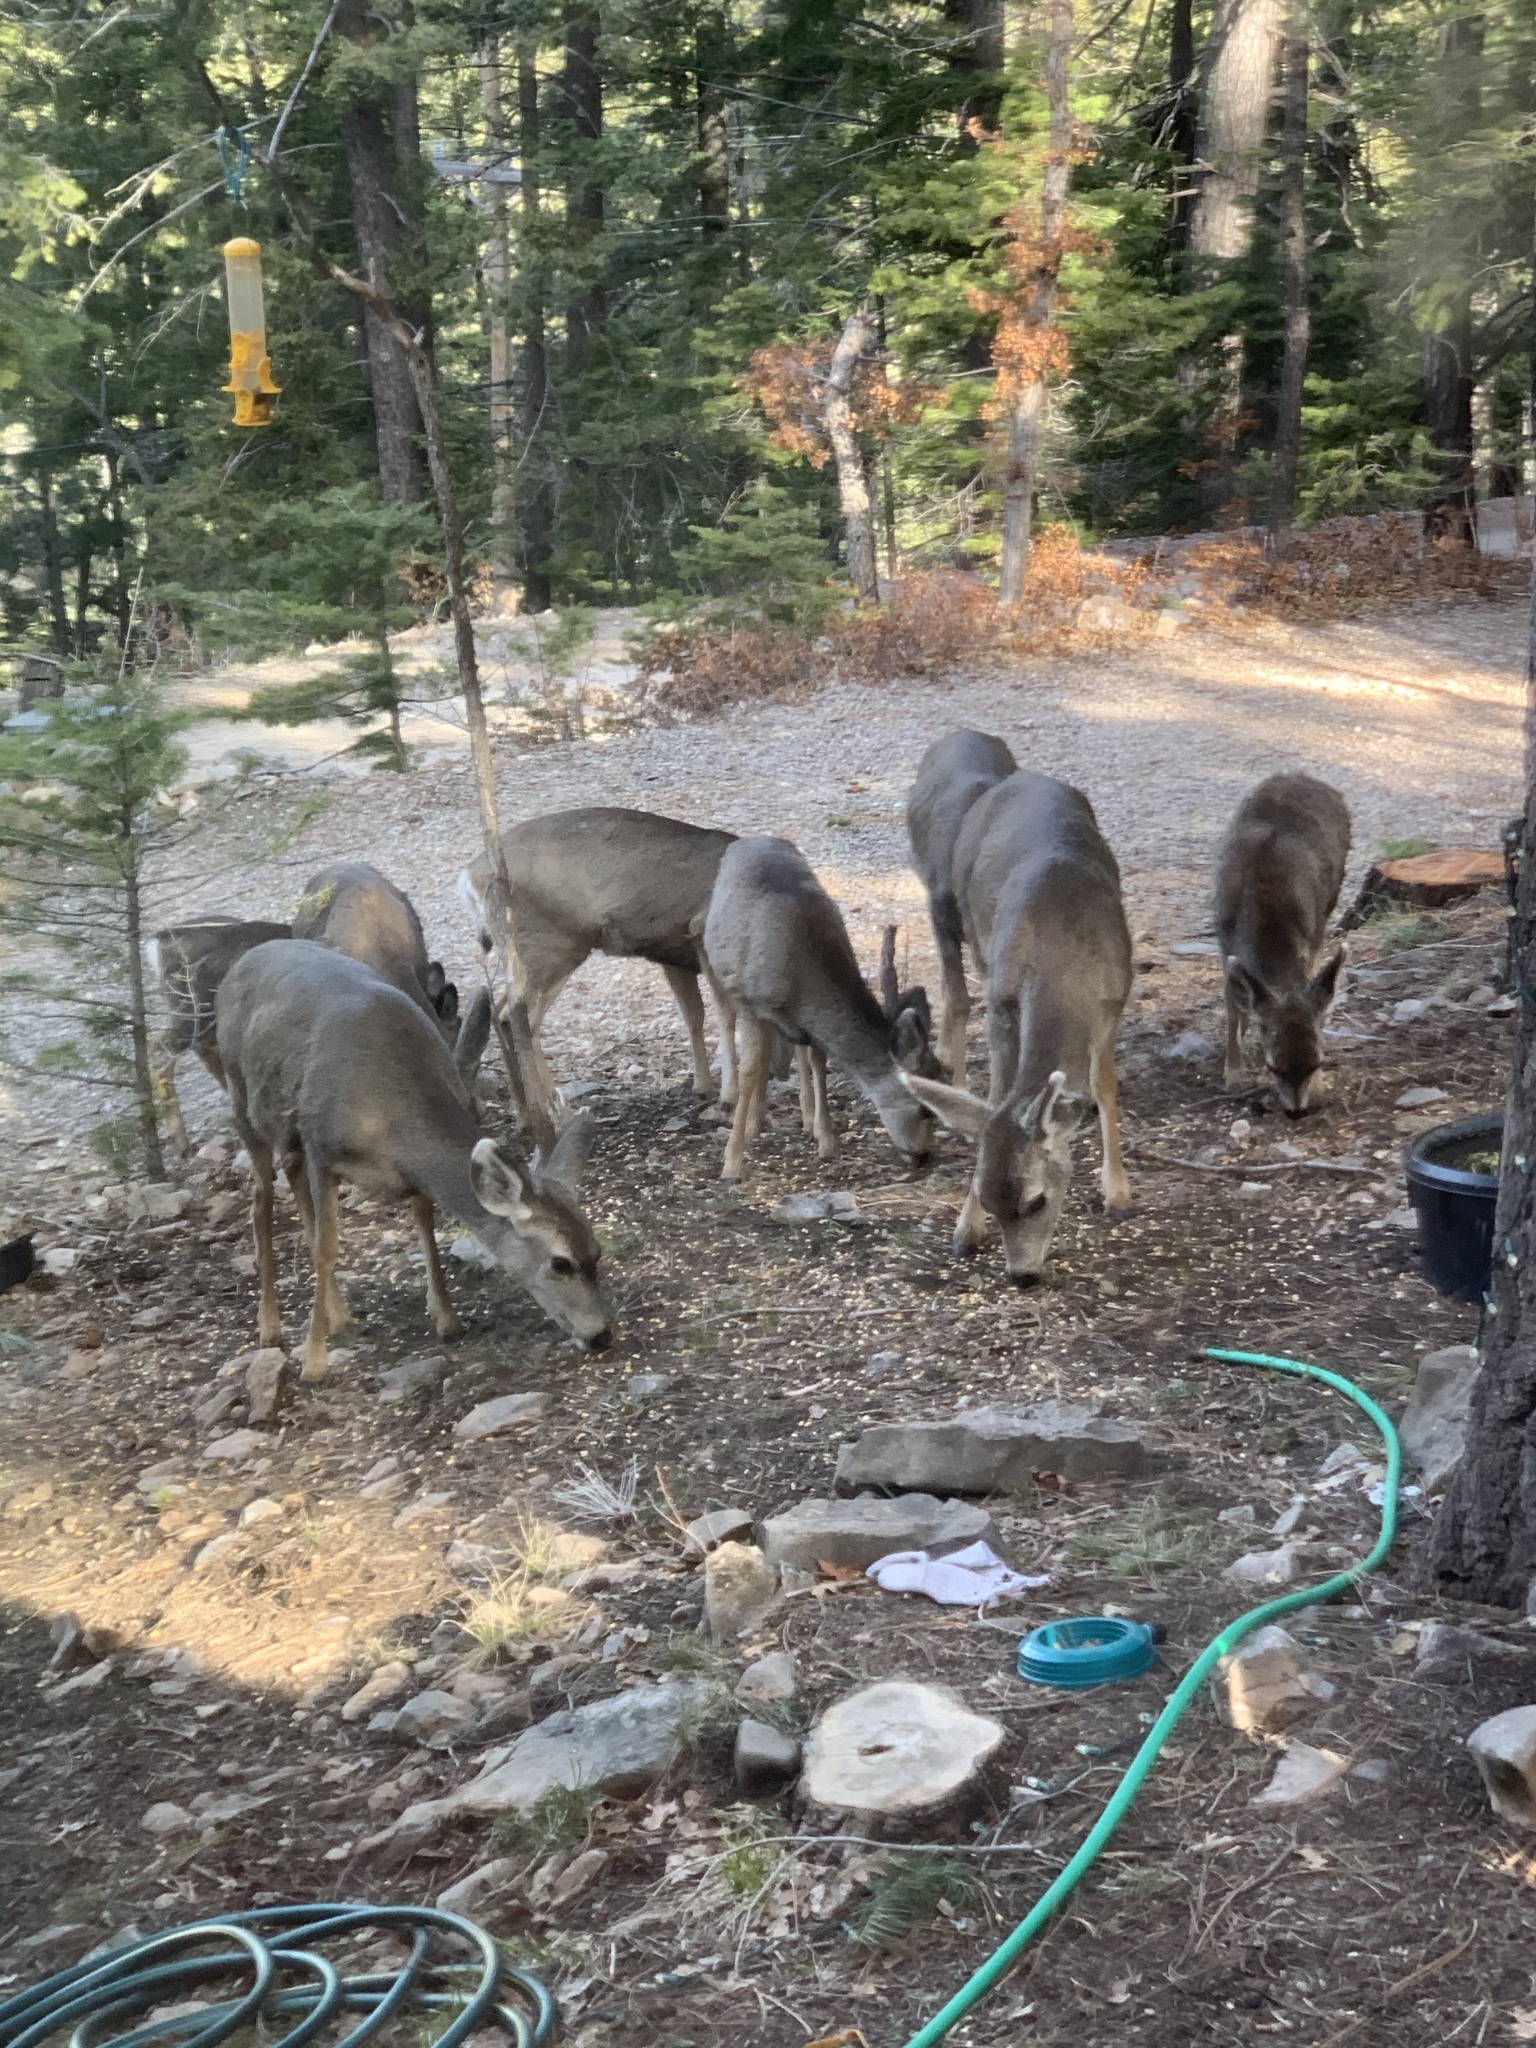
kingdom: Animalia
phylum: Chordata
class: Mammalia
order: Artiodactyla
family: Cervidae
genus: Odocoileus
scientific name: Odocoileus hemionus
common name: Mule deer
